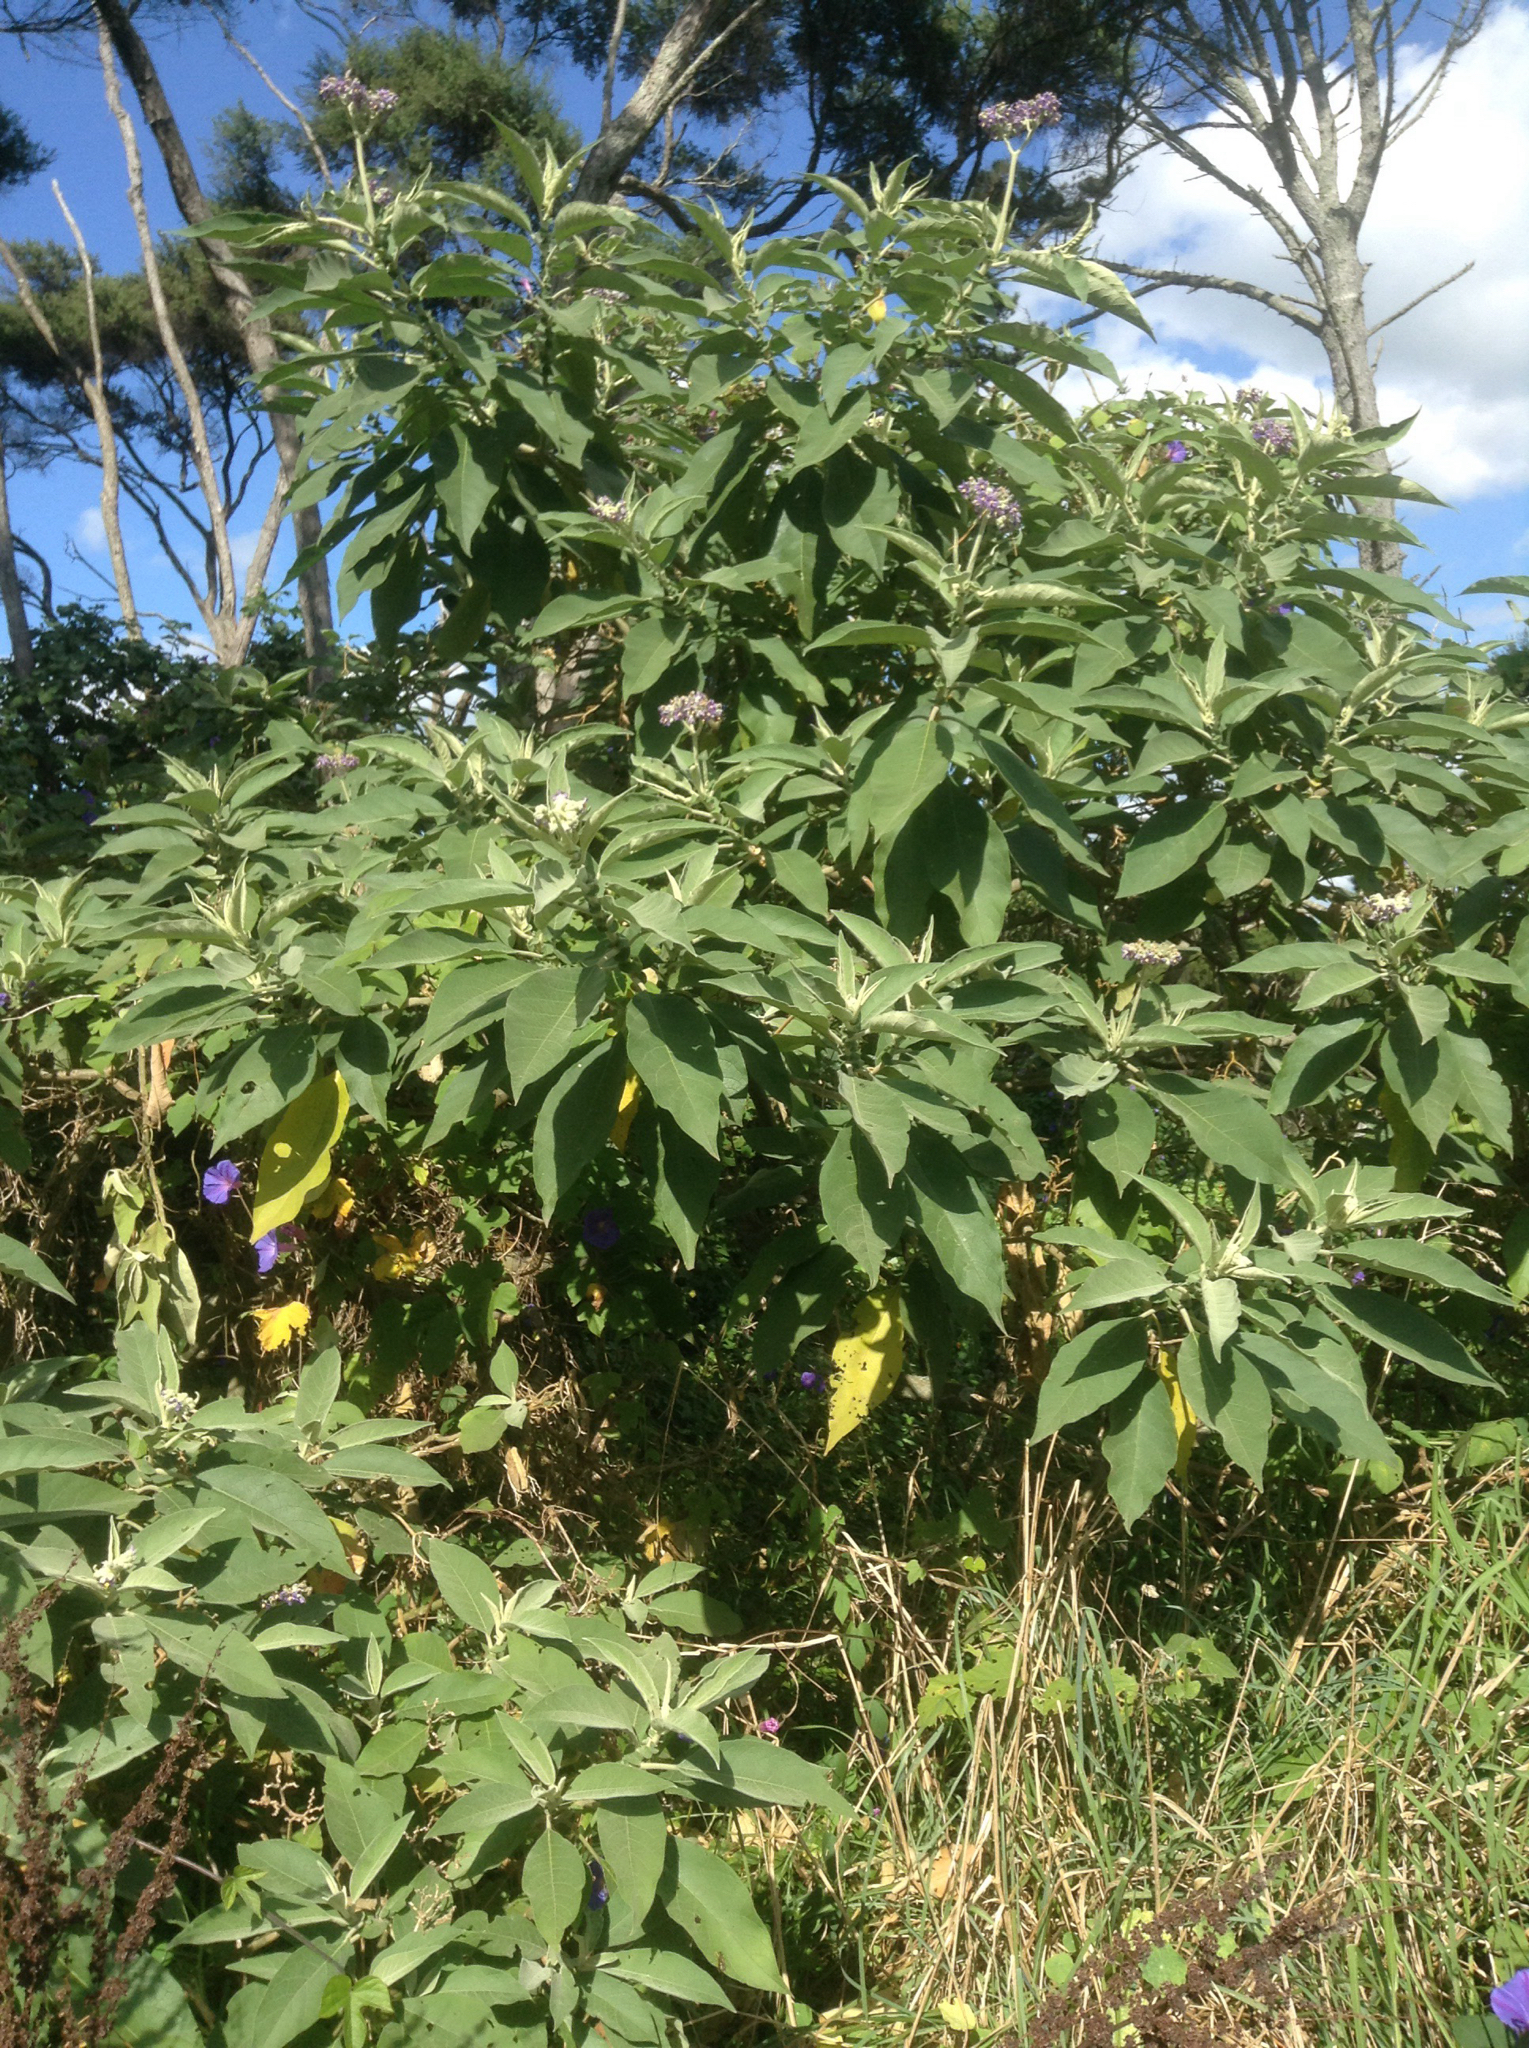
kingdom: Plantae
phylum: Tracheophyta
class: Magnoliopsida
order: Solanales
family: Solanaceae
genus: Solanum
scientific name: Solanum mauritianum
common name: Earleaf nightshade
